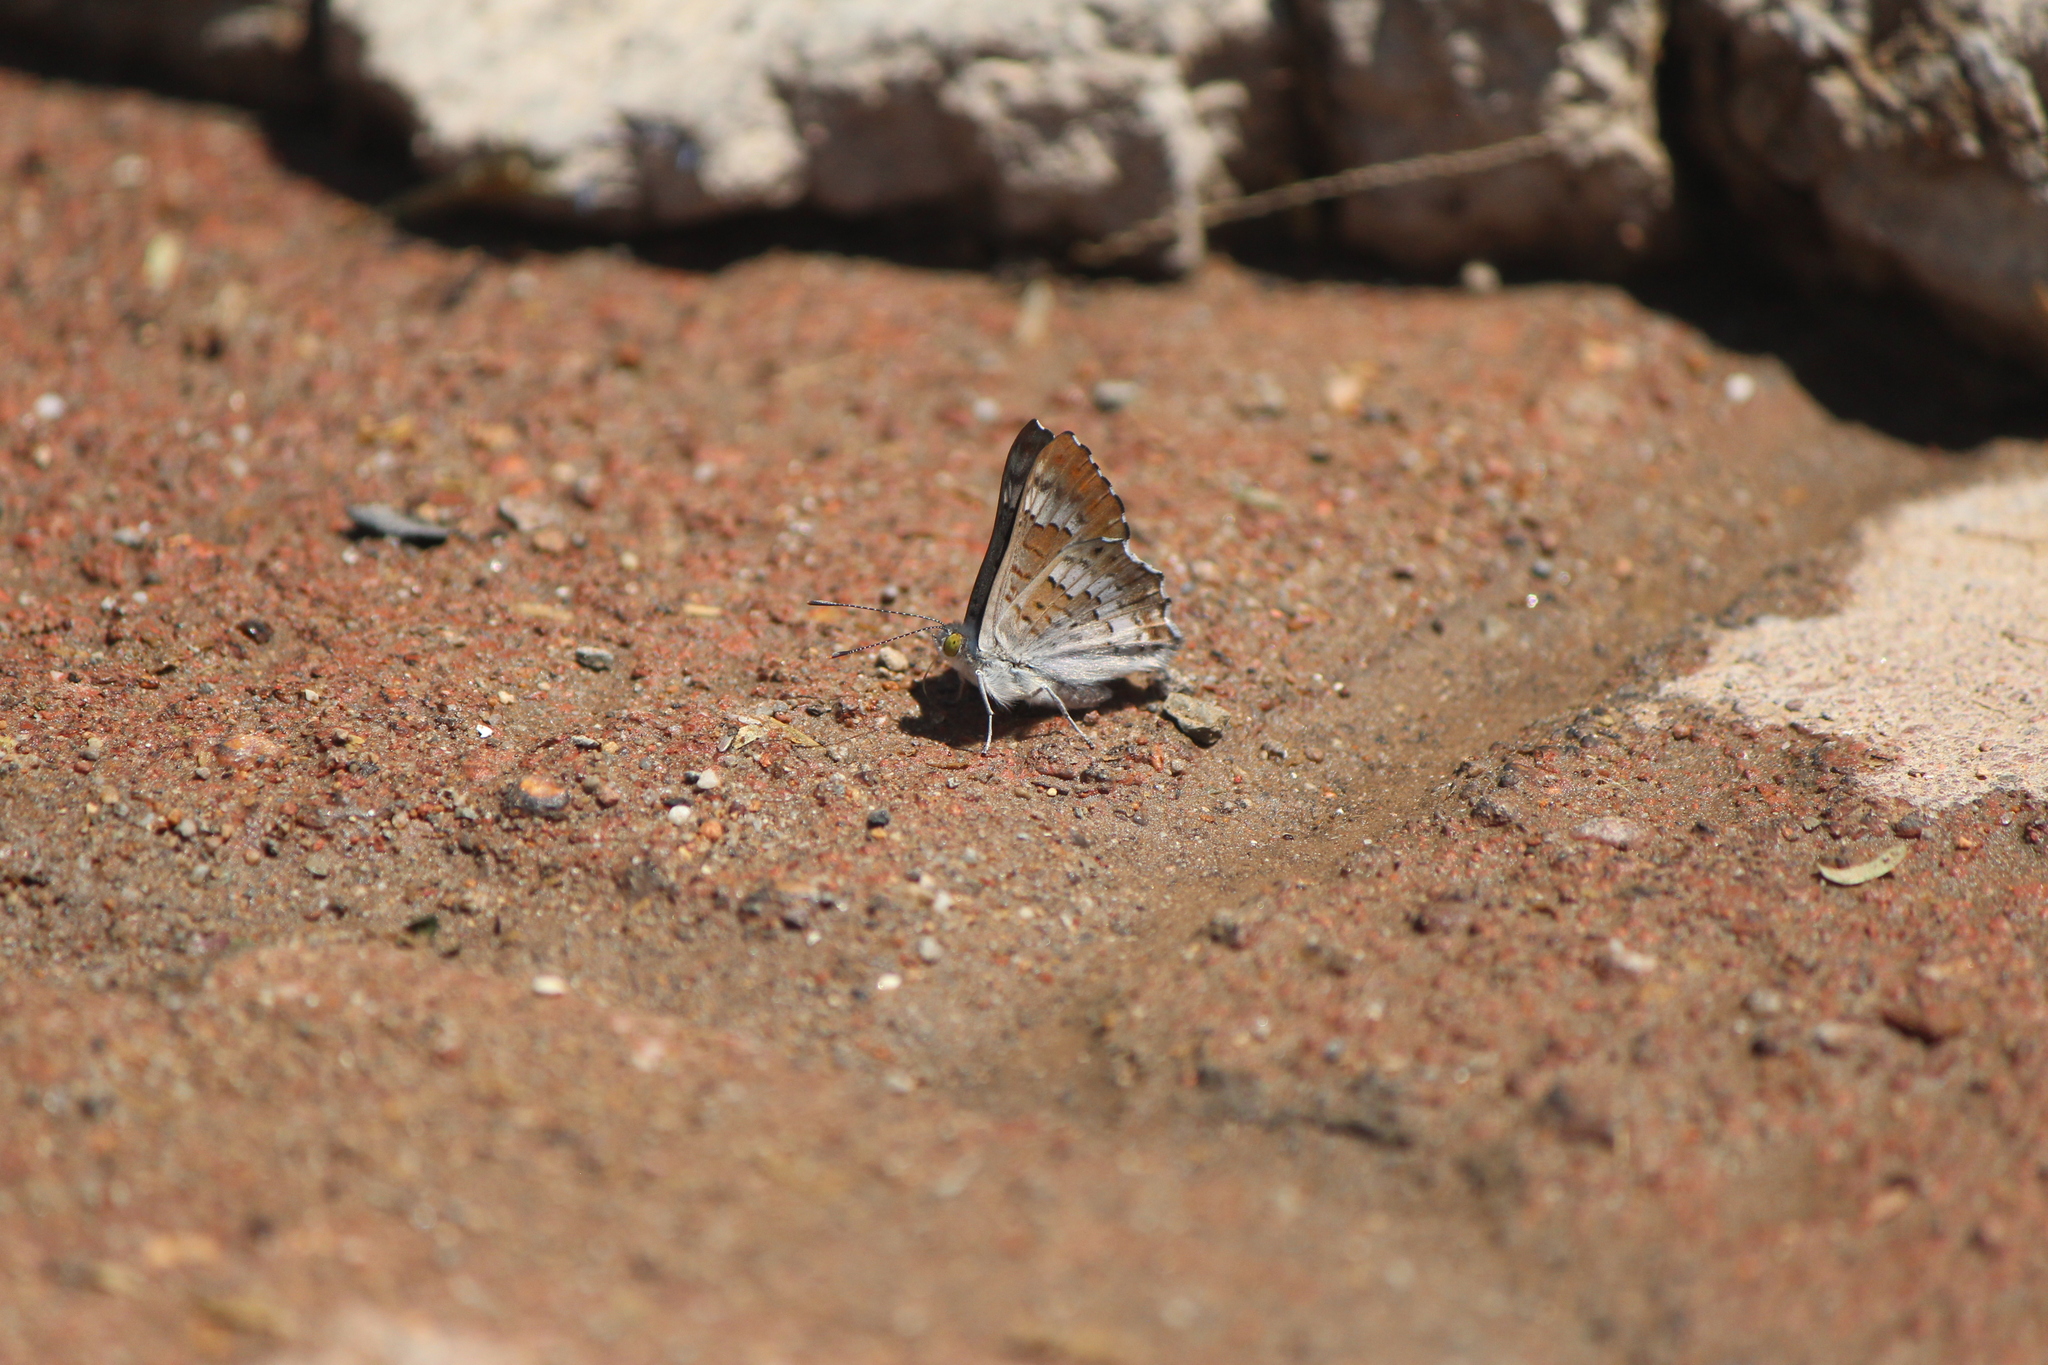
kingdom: Animalia
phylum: Arthropoda
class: Insecta
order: Lepidoptera
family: Riodinidae
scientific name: Riodinidae
